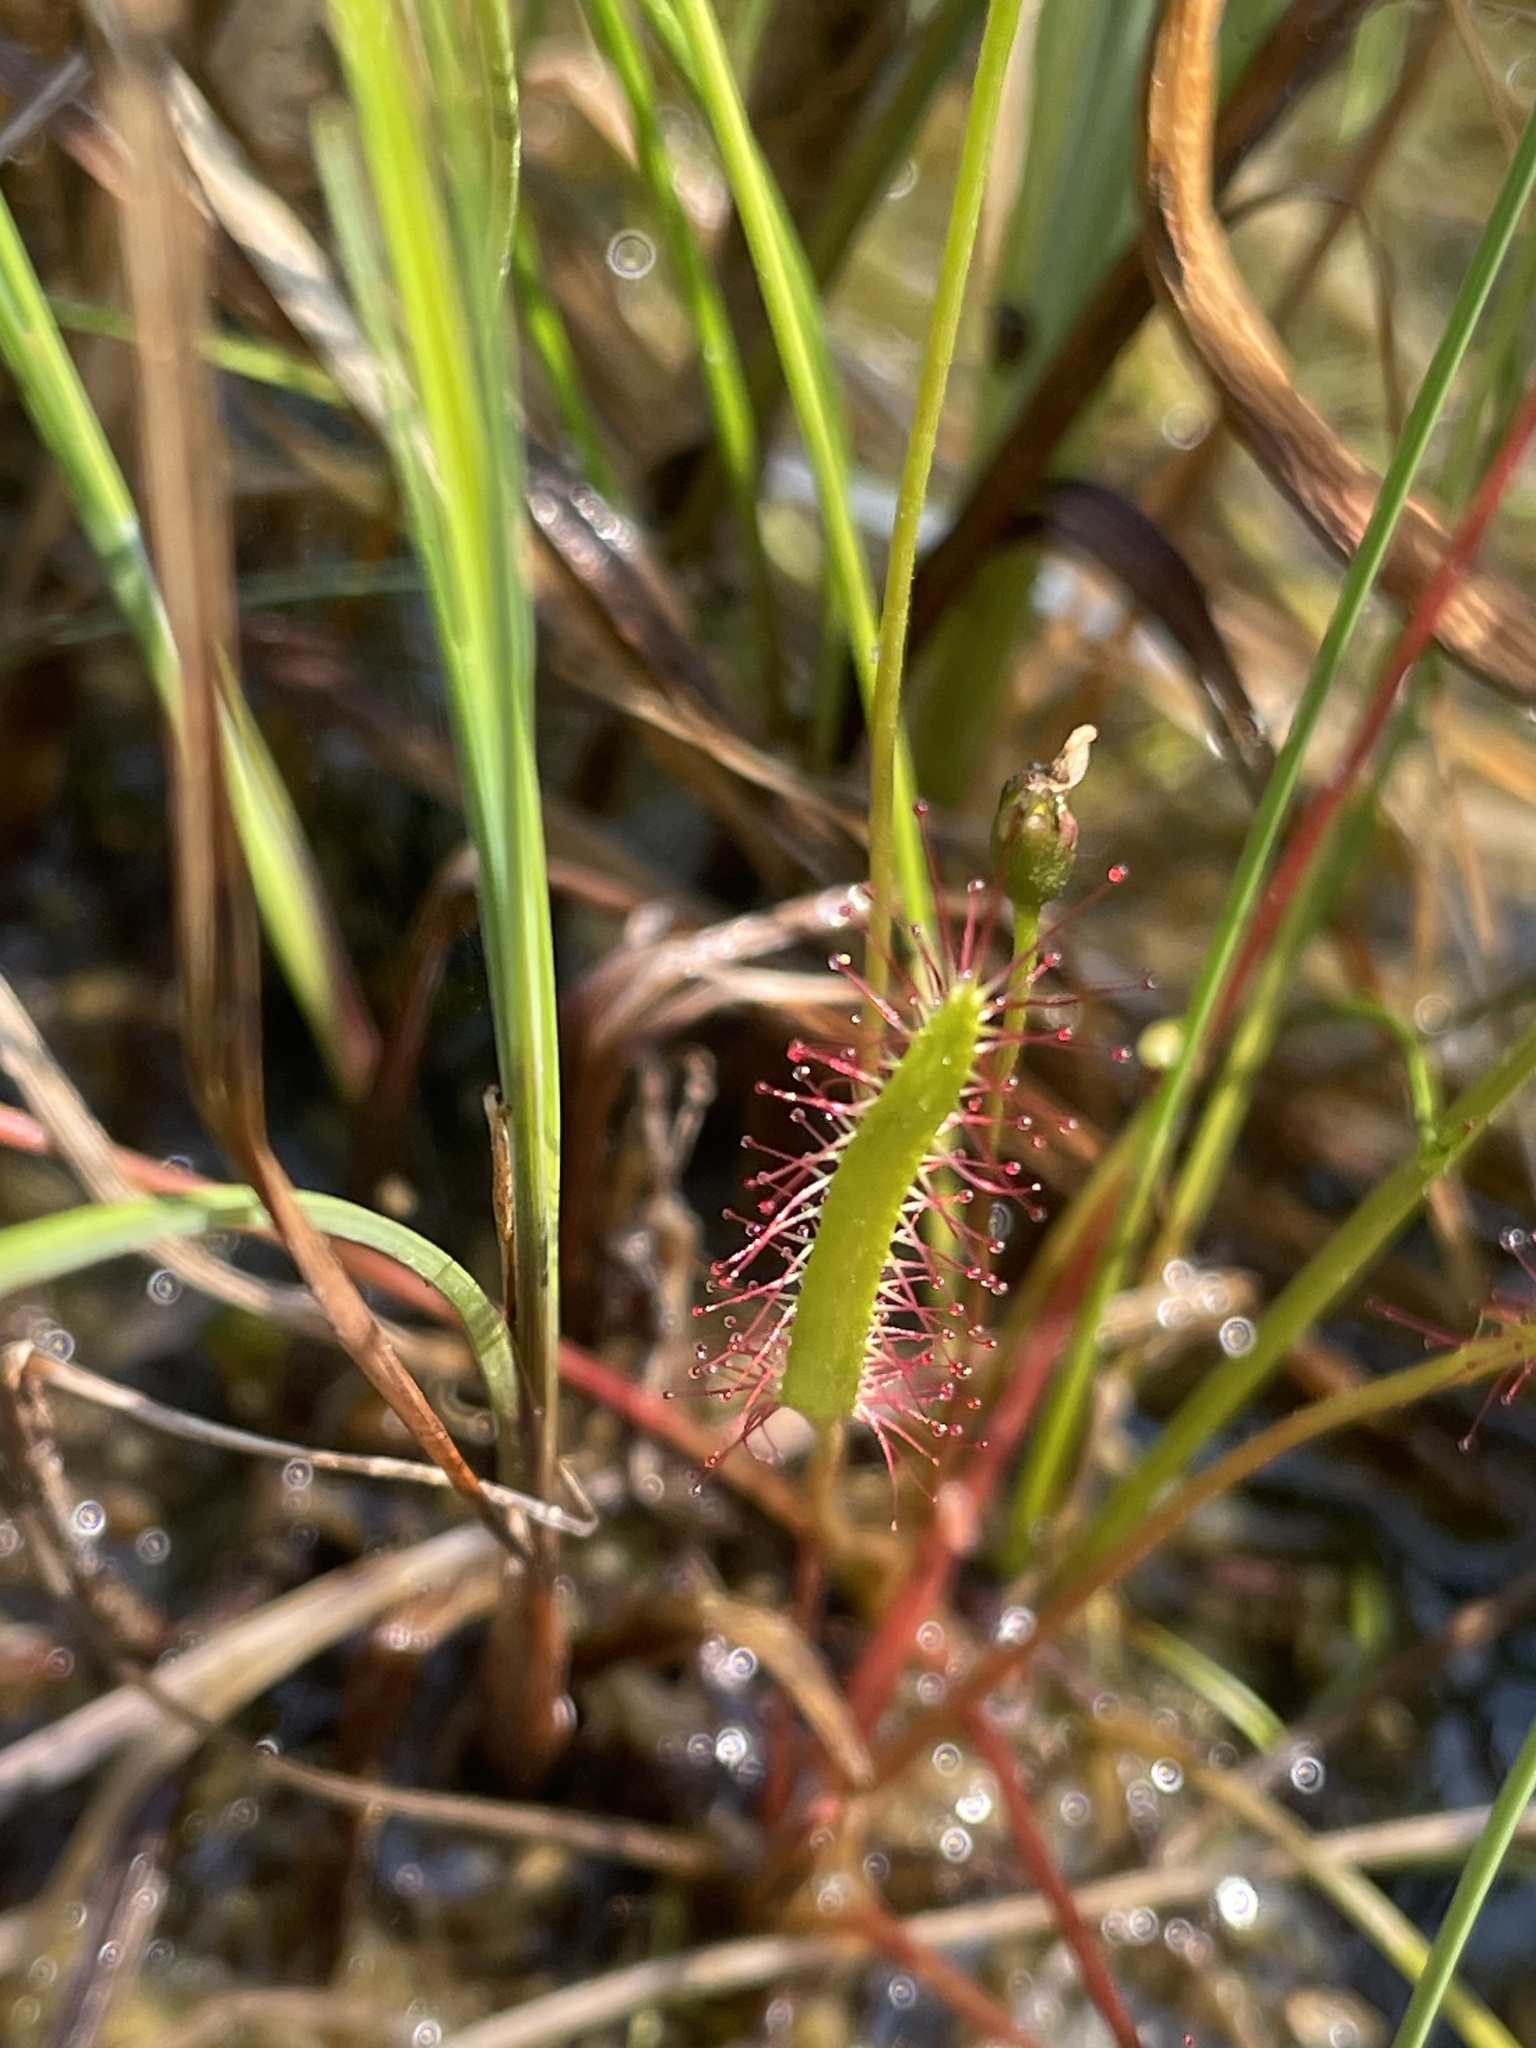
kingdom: Plantae
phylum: Tracheophyta
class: Magnoliopsida
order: Caryophyllales
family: Droseraceae
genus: Drosera
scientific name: Drosera linearis
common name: Linear-leaved sundew
